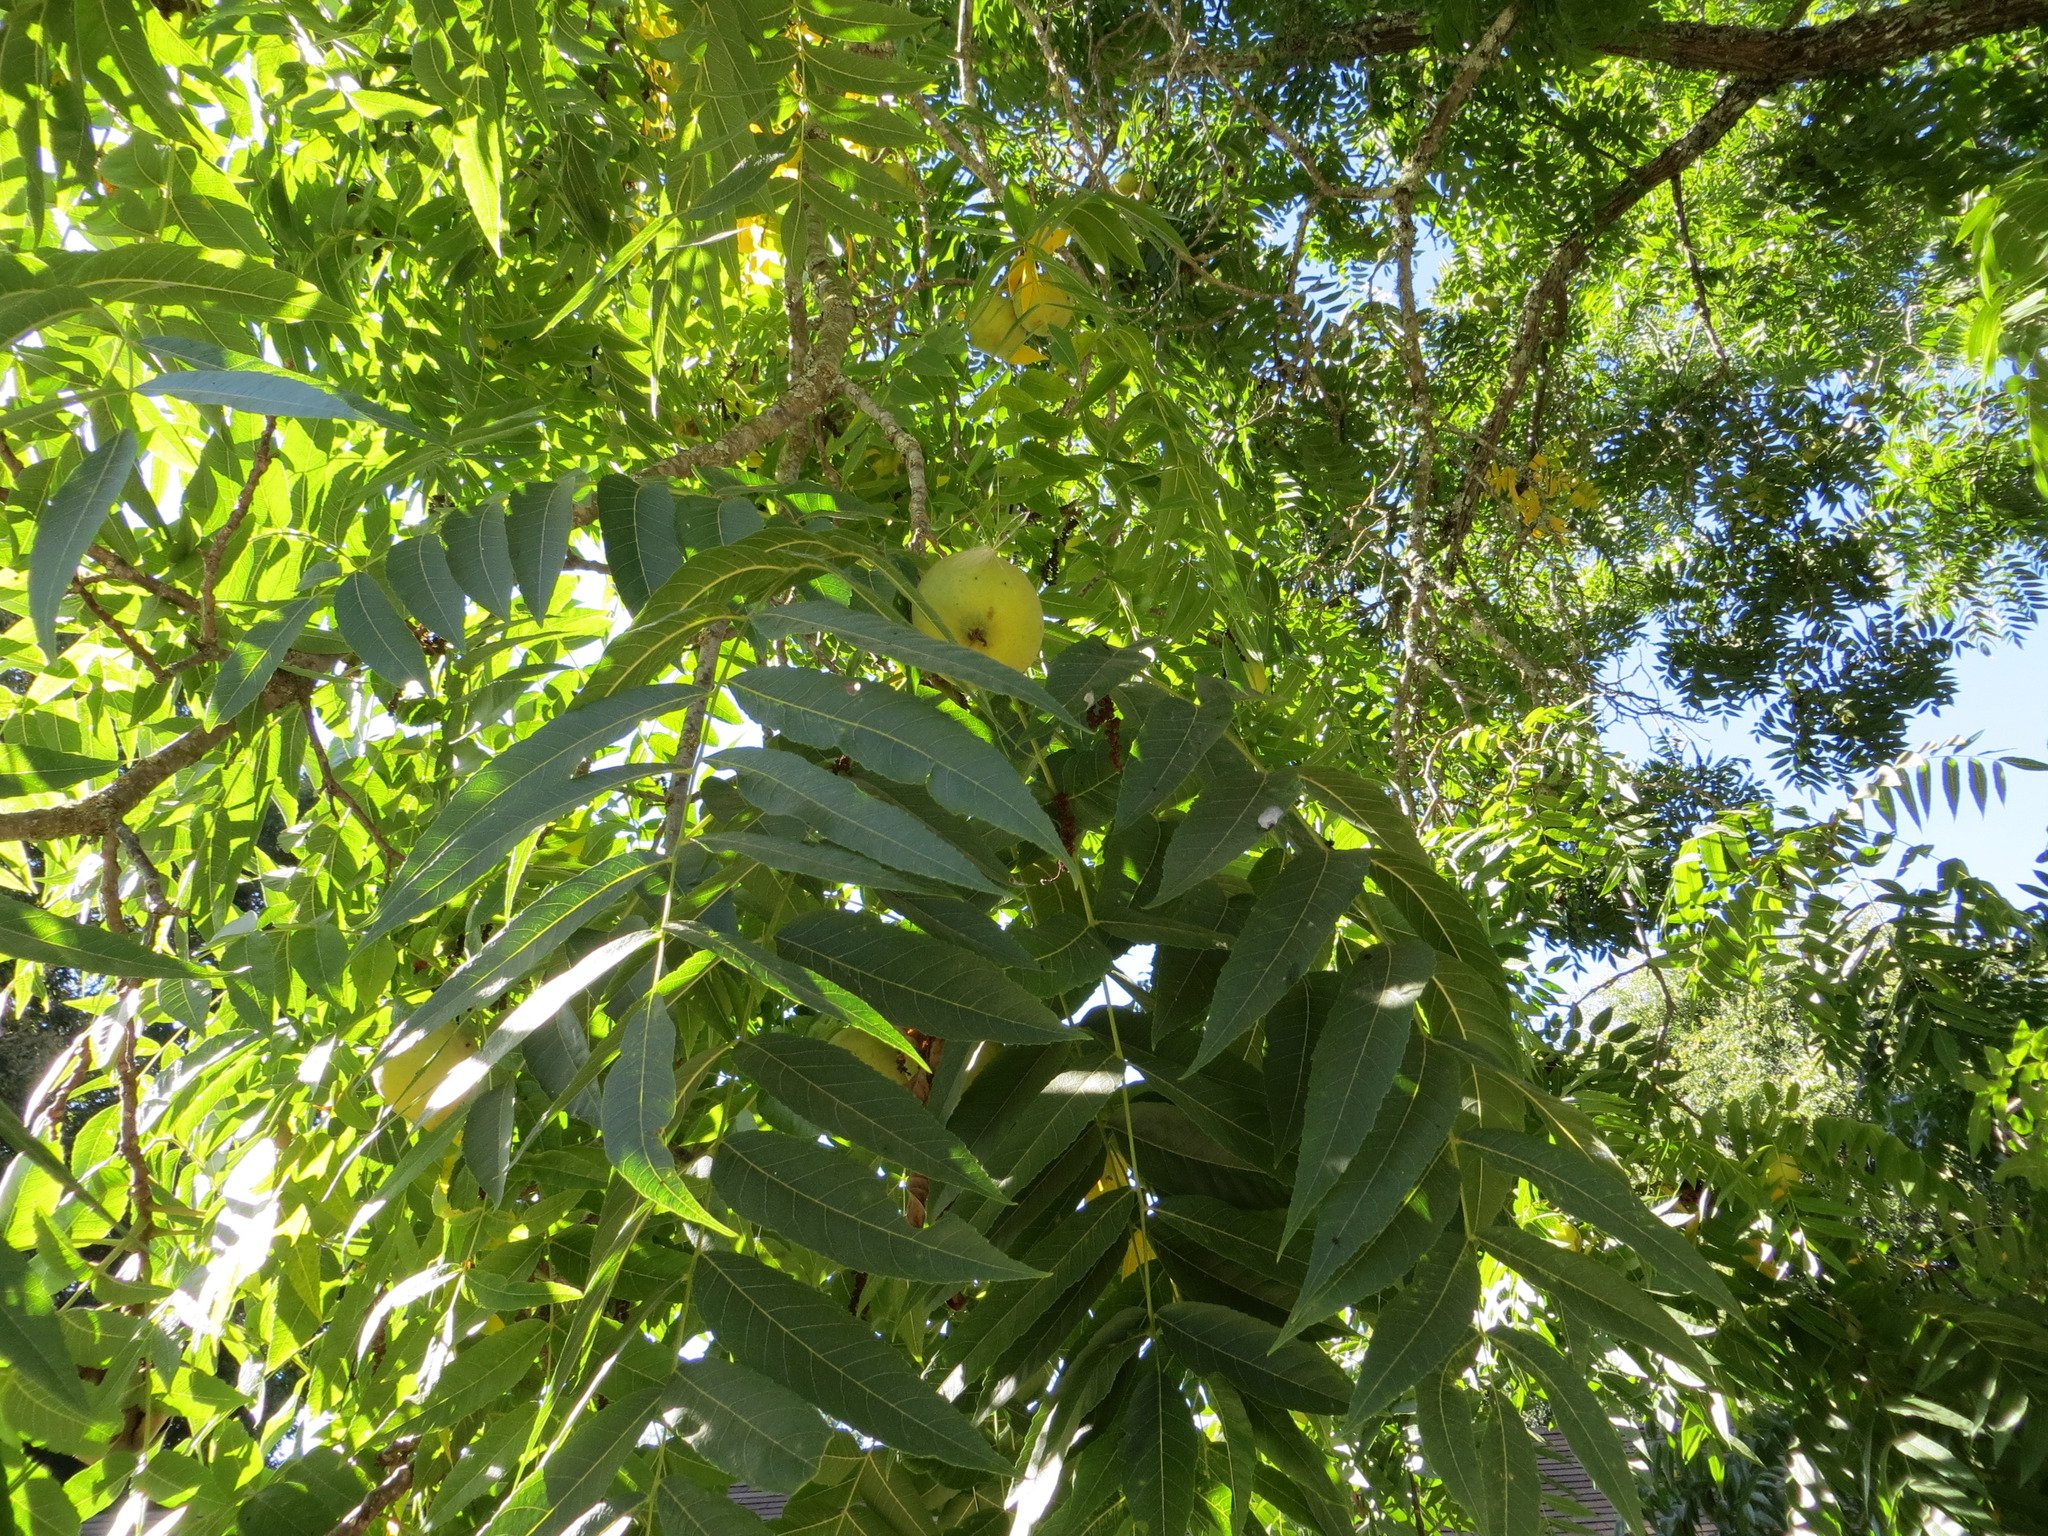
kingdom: Plantae
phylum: Tracheophyta
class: Magnoliopsida
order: Fagales
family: Juglandaceae
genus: Juglans
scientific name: Juglans hindsii
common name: Northern california black walnut
